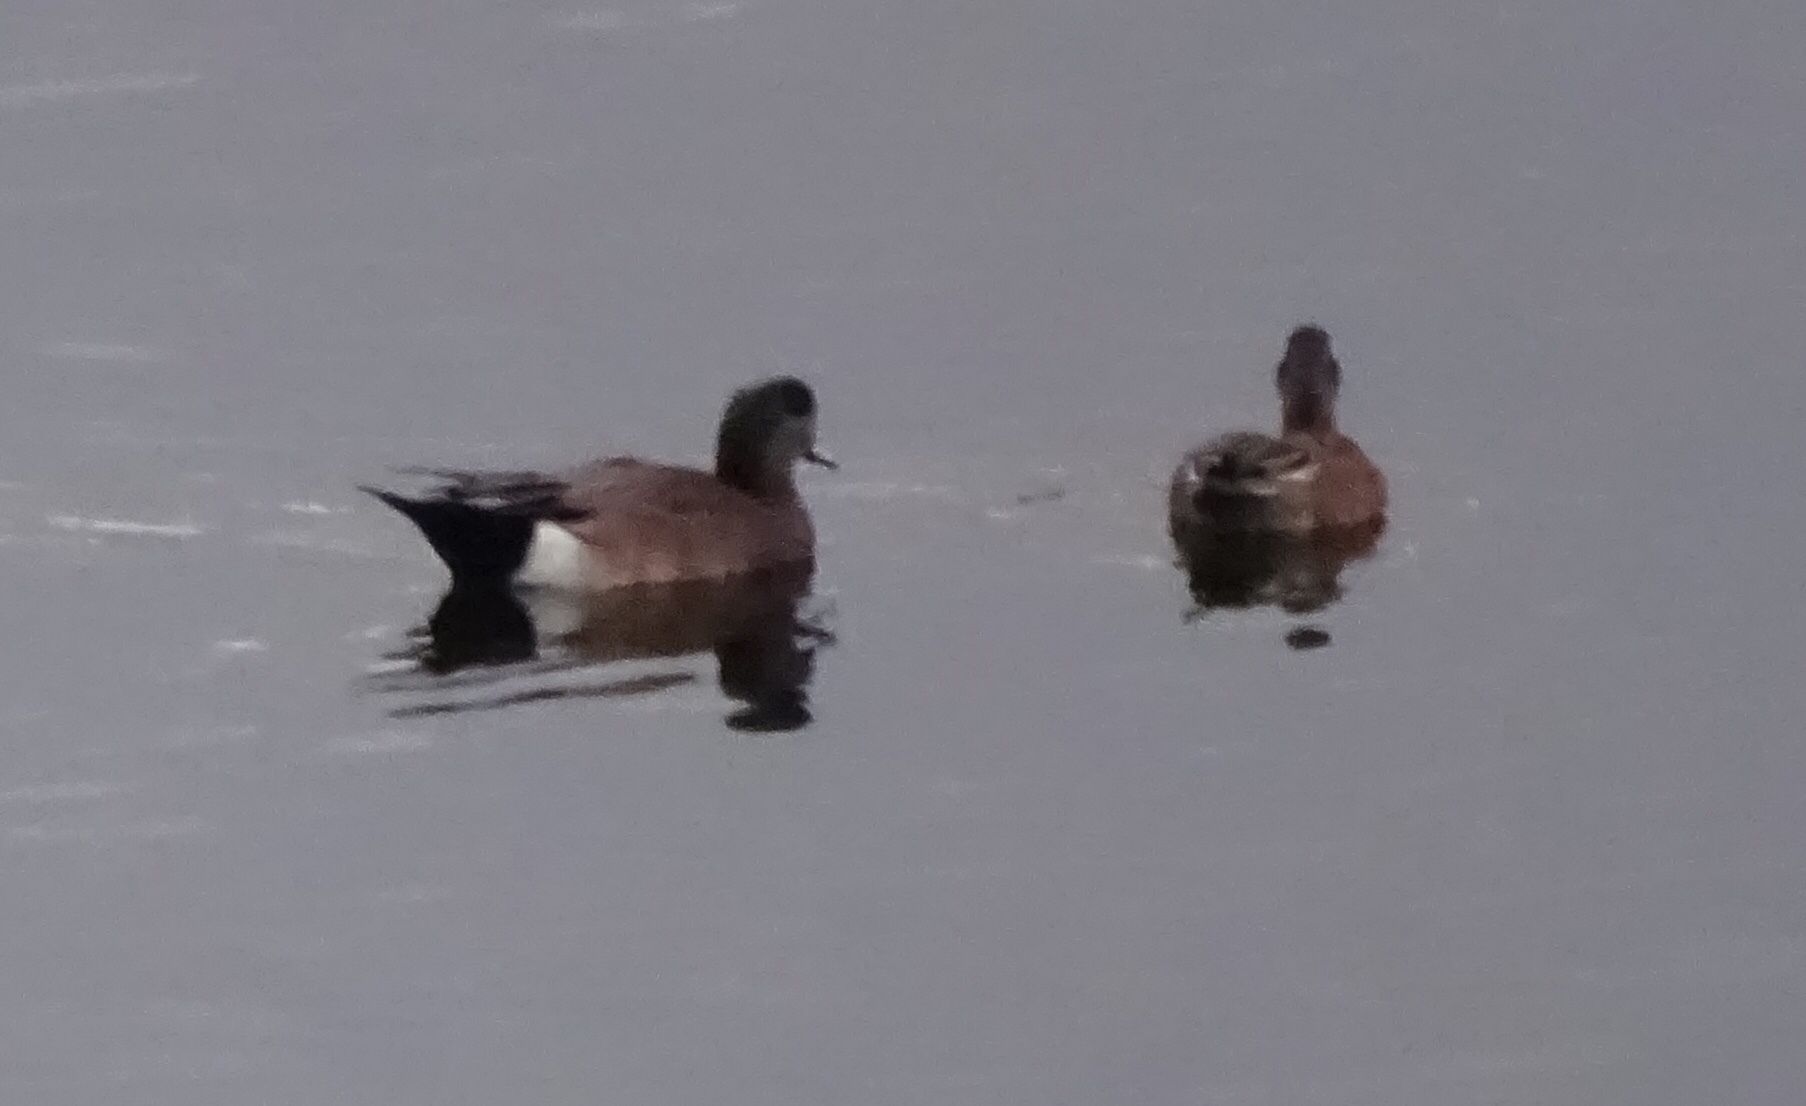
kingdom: Animalia
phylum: Chordata
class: Aves
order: Anseriformes
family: Anatidae
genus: Mareca
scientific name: Mareca americana
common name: American wigeon
